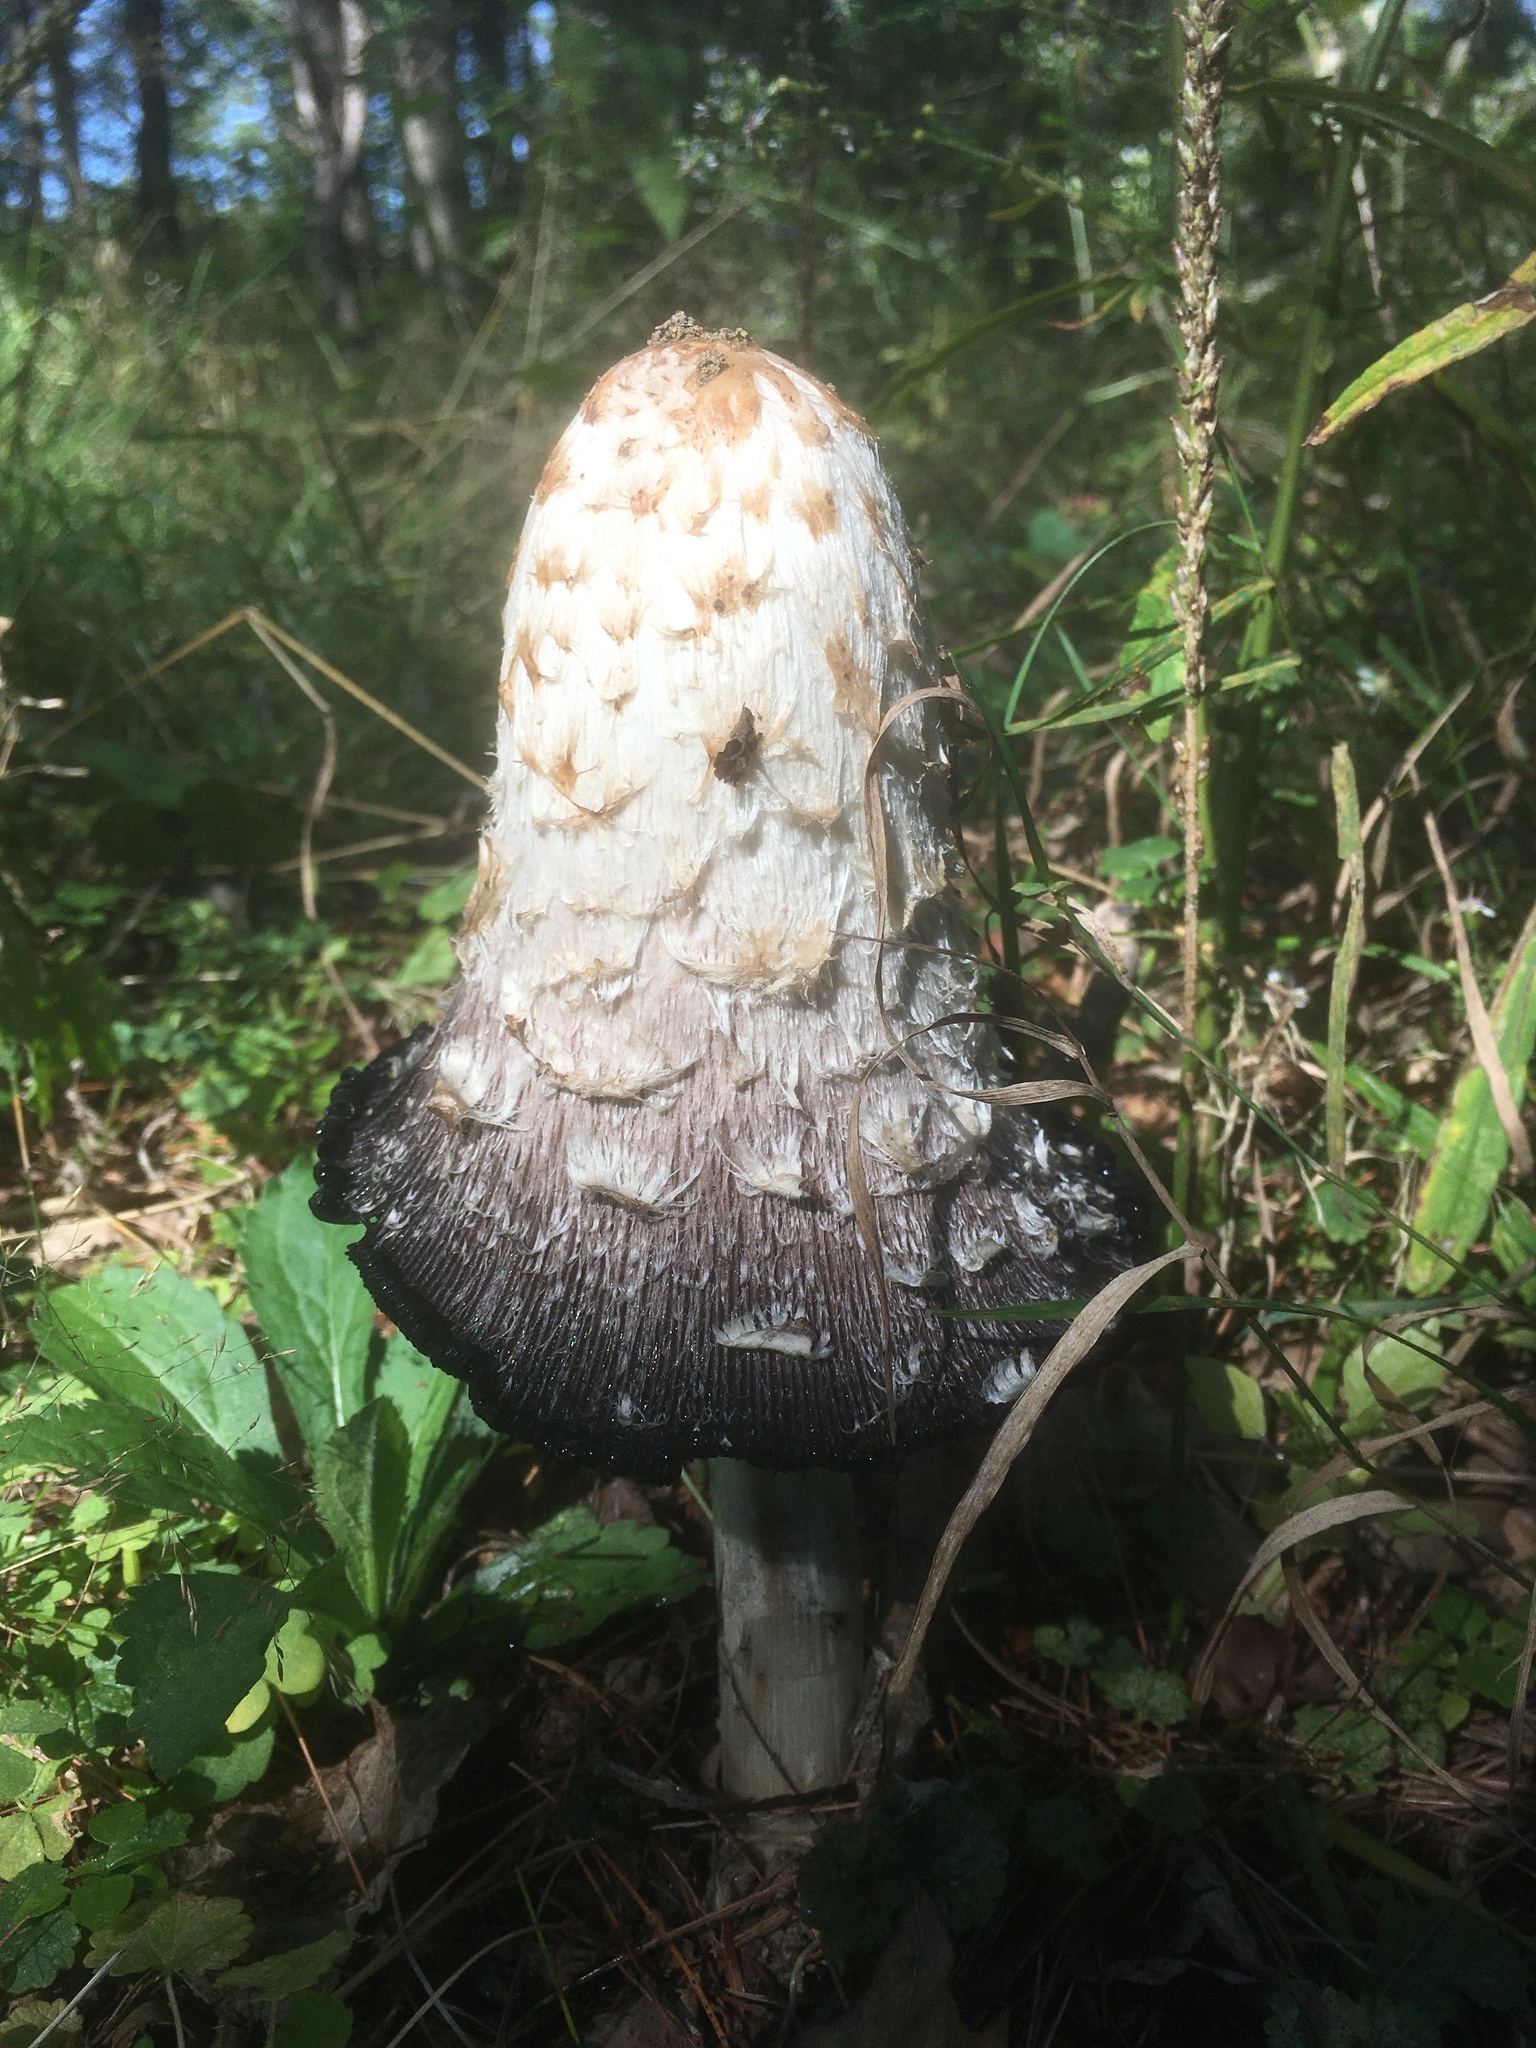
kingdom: Fungi
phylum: Basidiomycota
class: Agaricomycetes
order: Agaricales
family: Agaricaceae
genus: Coprinus
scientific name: Coprinus comatus
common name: Lawyer's wig
